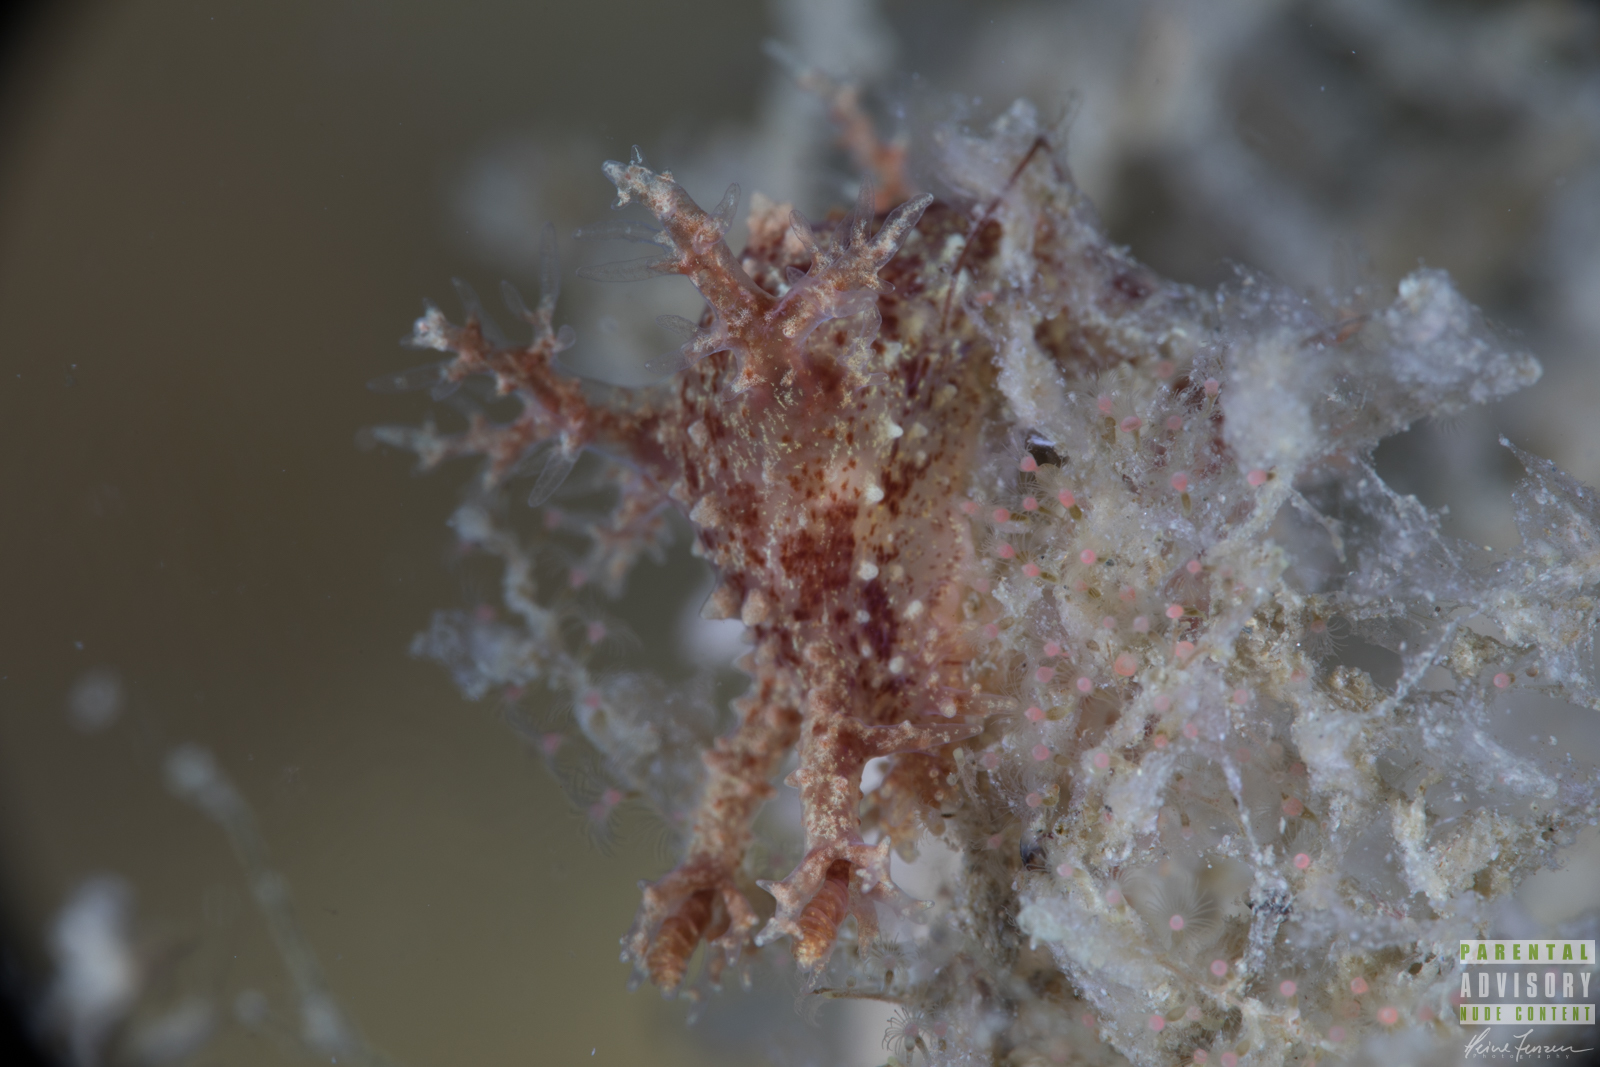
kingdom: Animalia
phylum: Mollusca
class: Gastropoda
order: Nudibranchia
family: Dendronotidae
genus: Dendronotus
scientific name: Dendronotus frondosus
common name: Bushy-backed nudibranch
